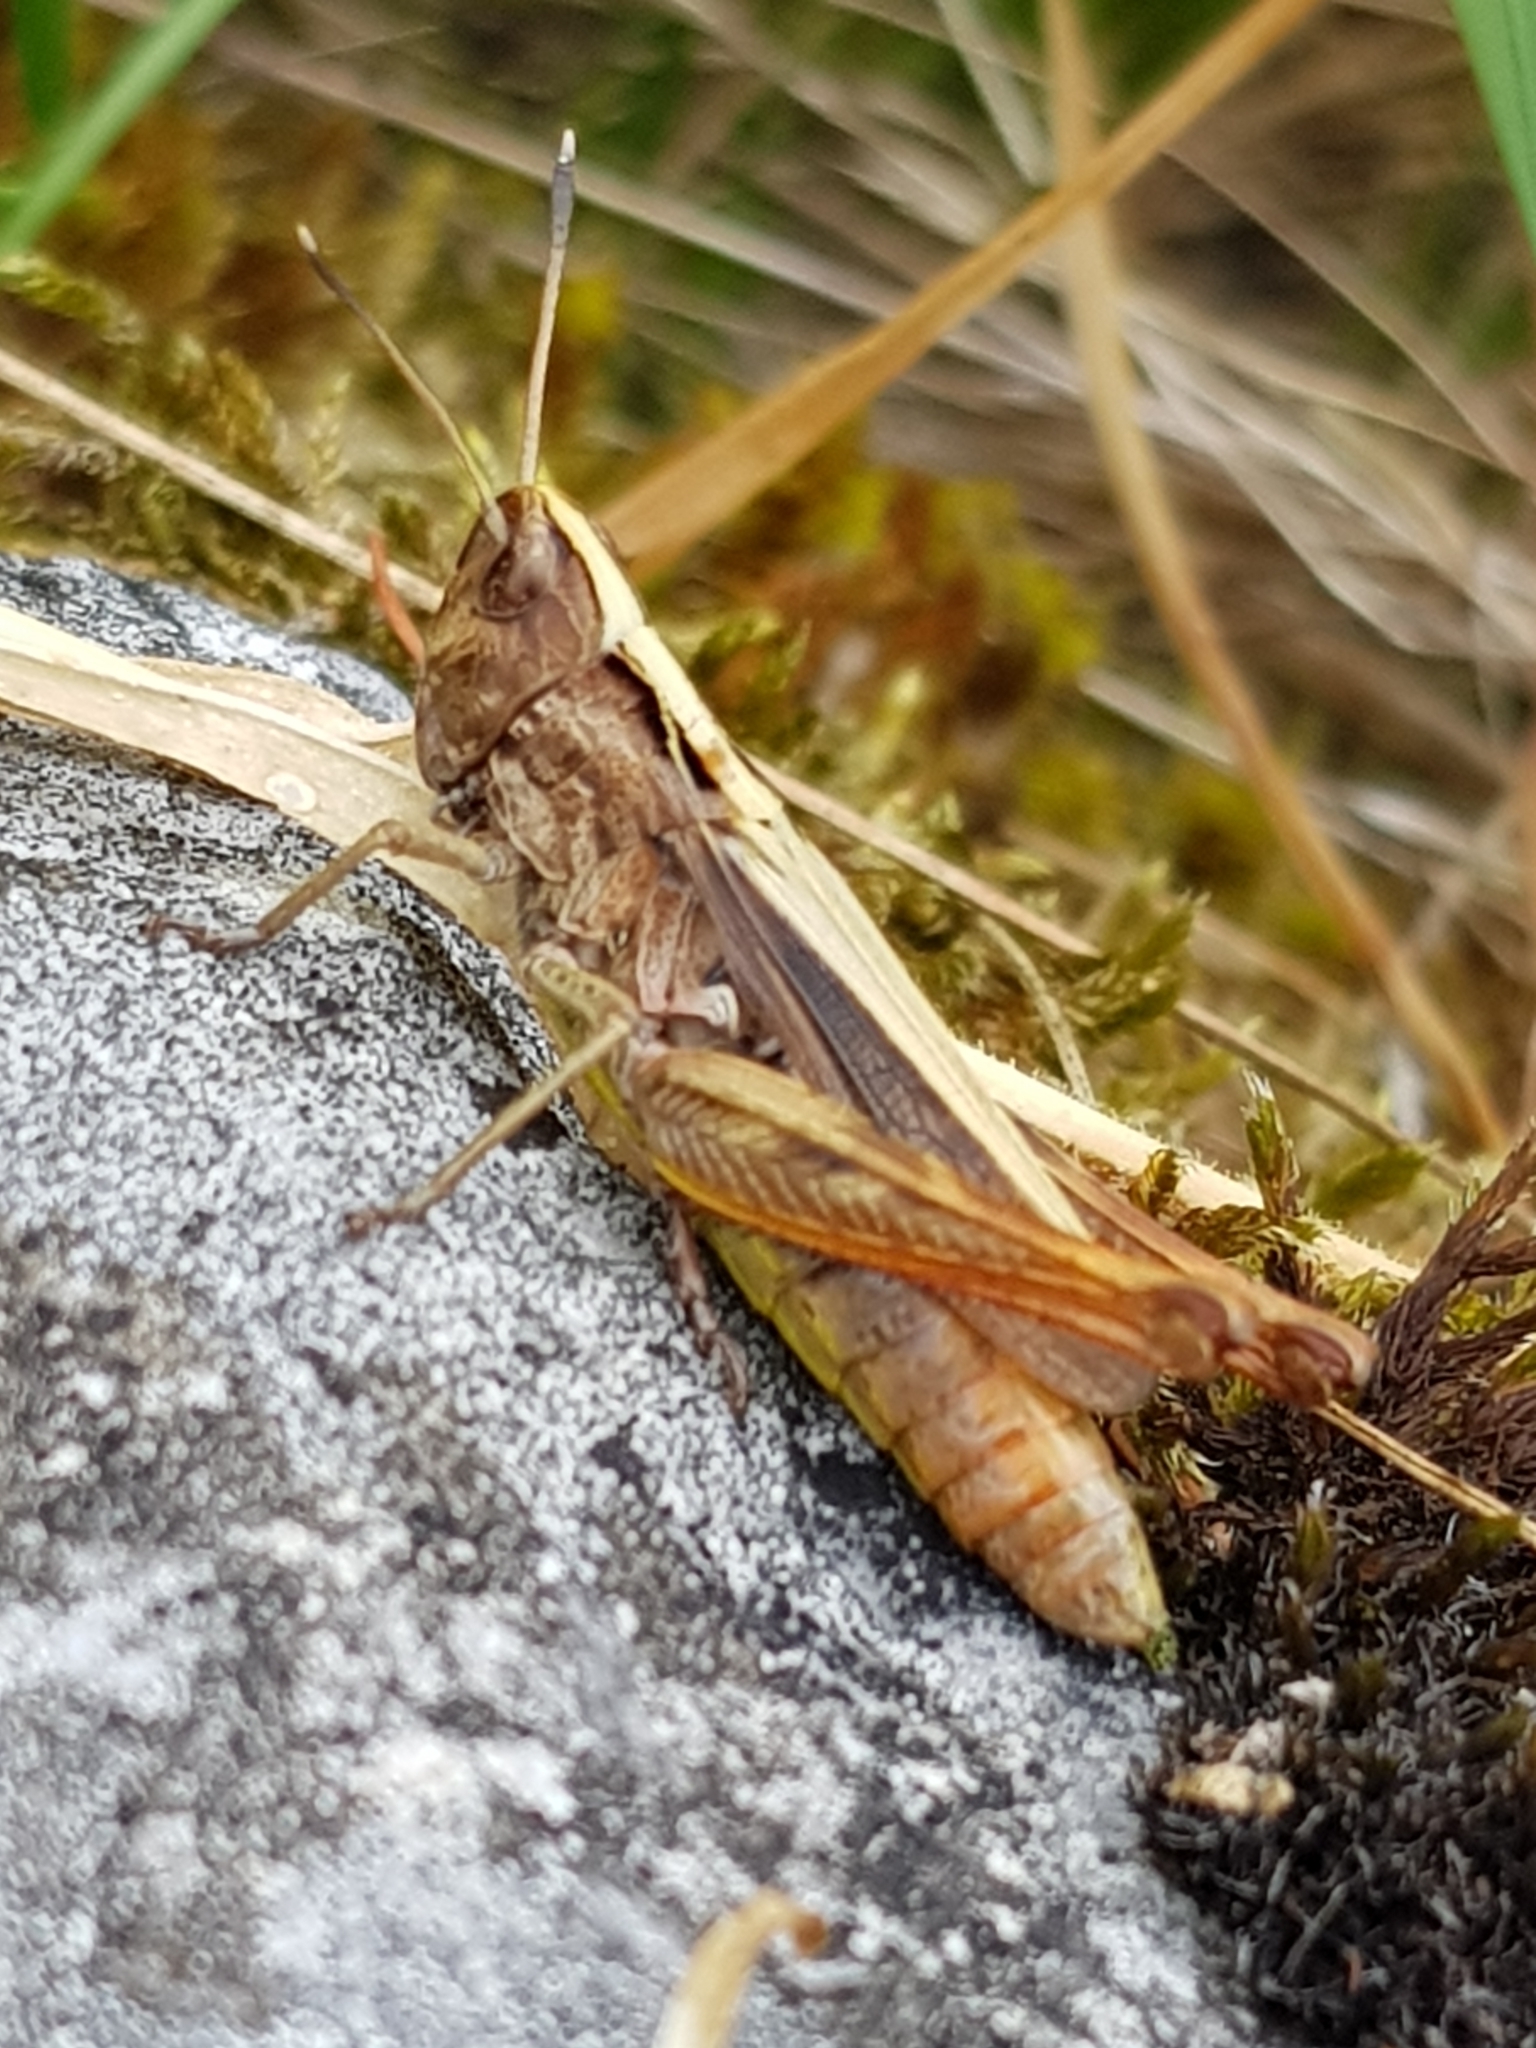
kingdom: Animalia
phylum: Arthropoda
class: Insecta
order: Orthoptera
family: Acrididae
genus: Gomphocerippus
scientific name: Gomphocerippus rufus
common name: Rufous grasshopper
